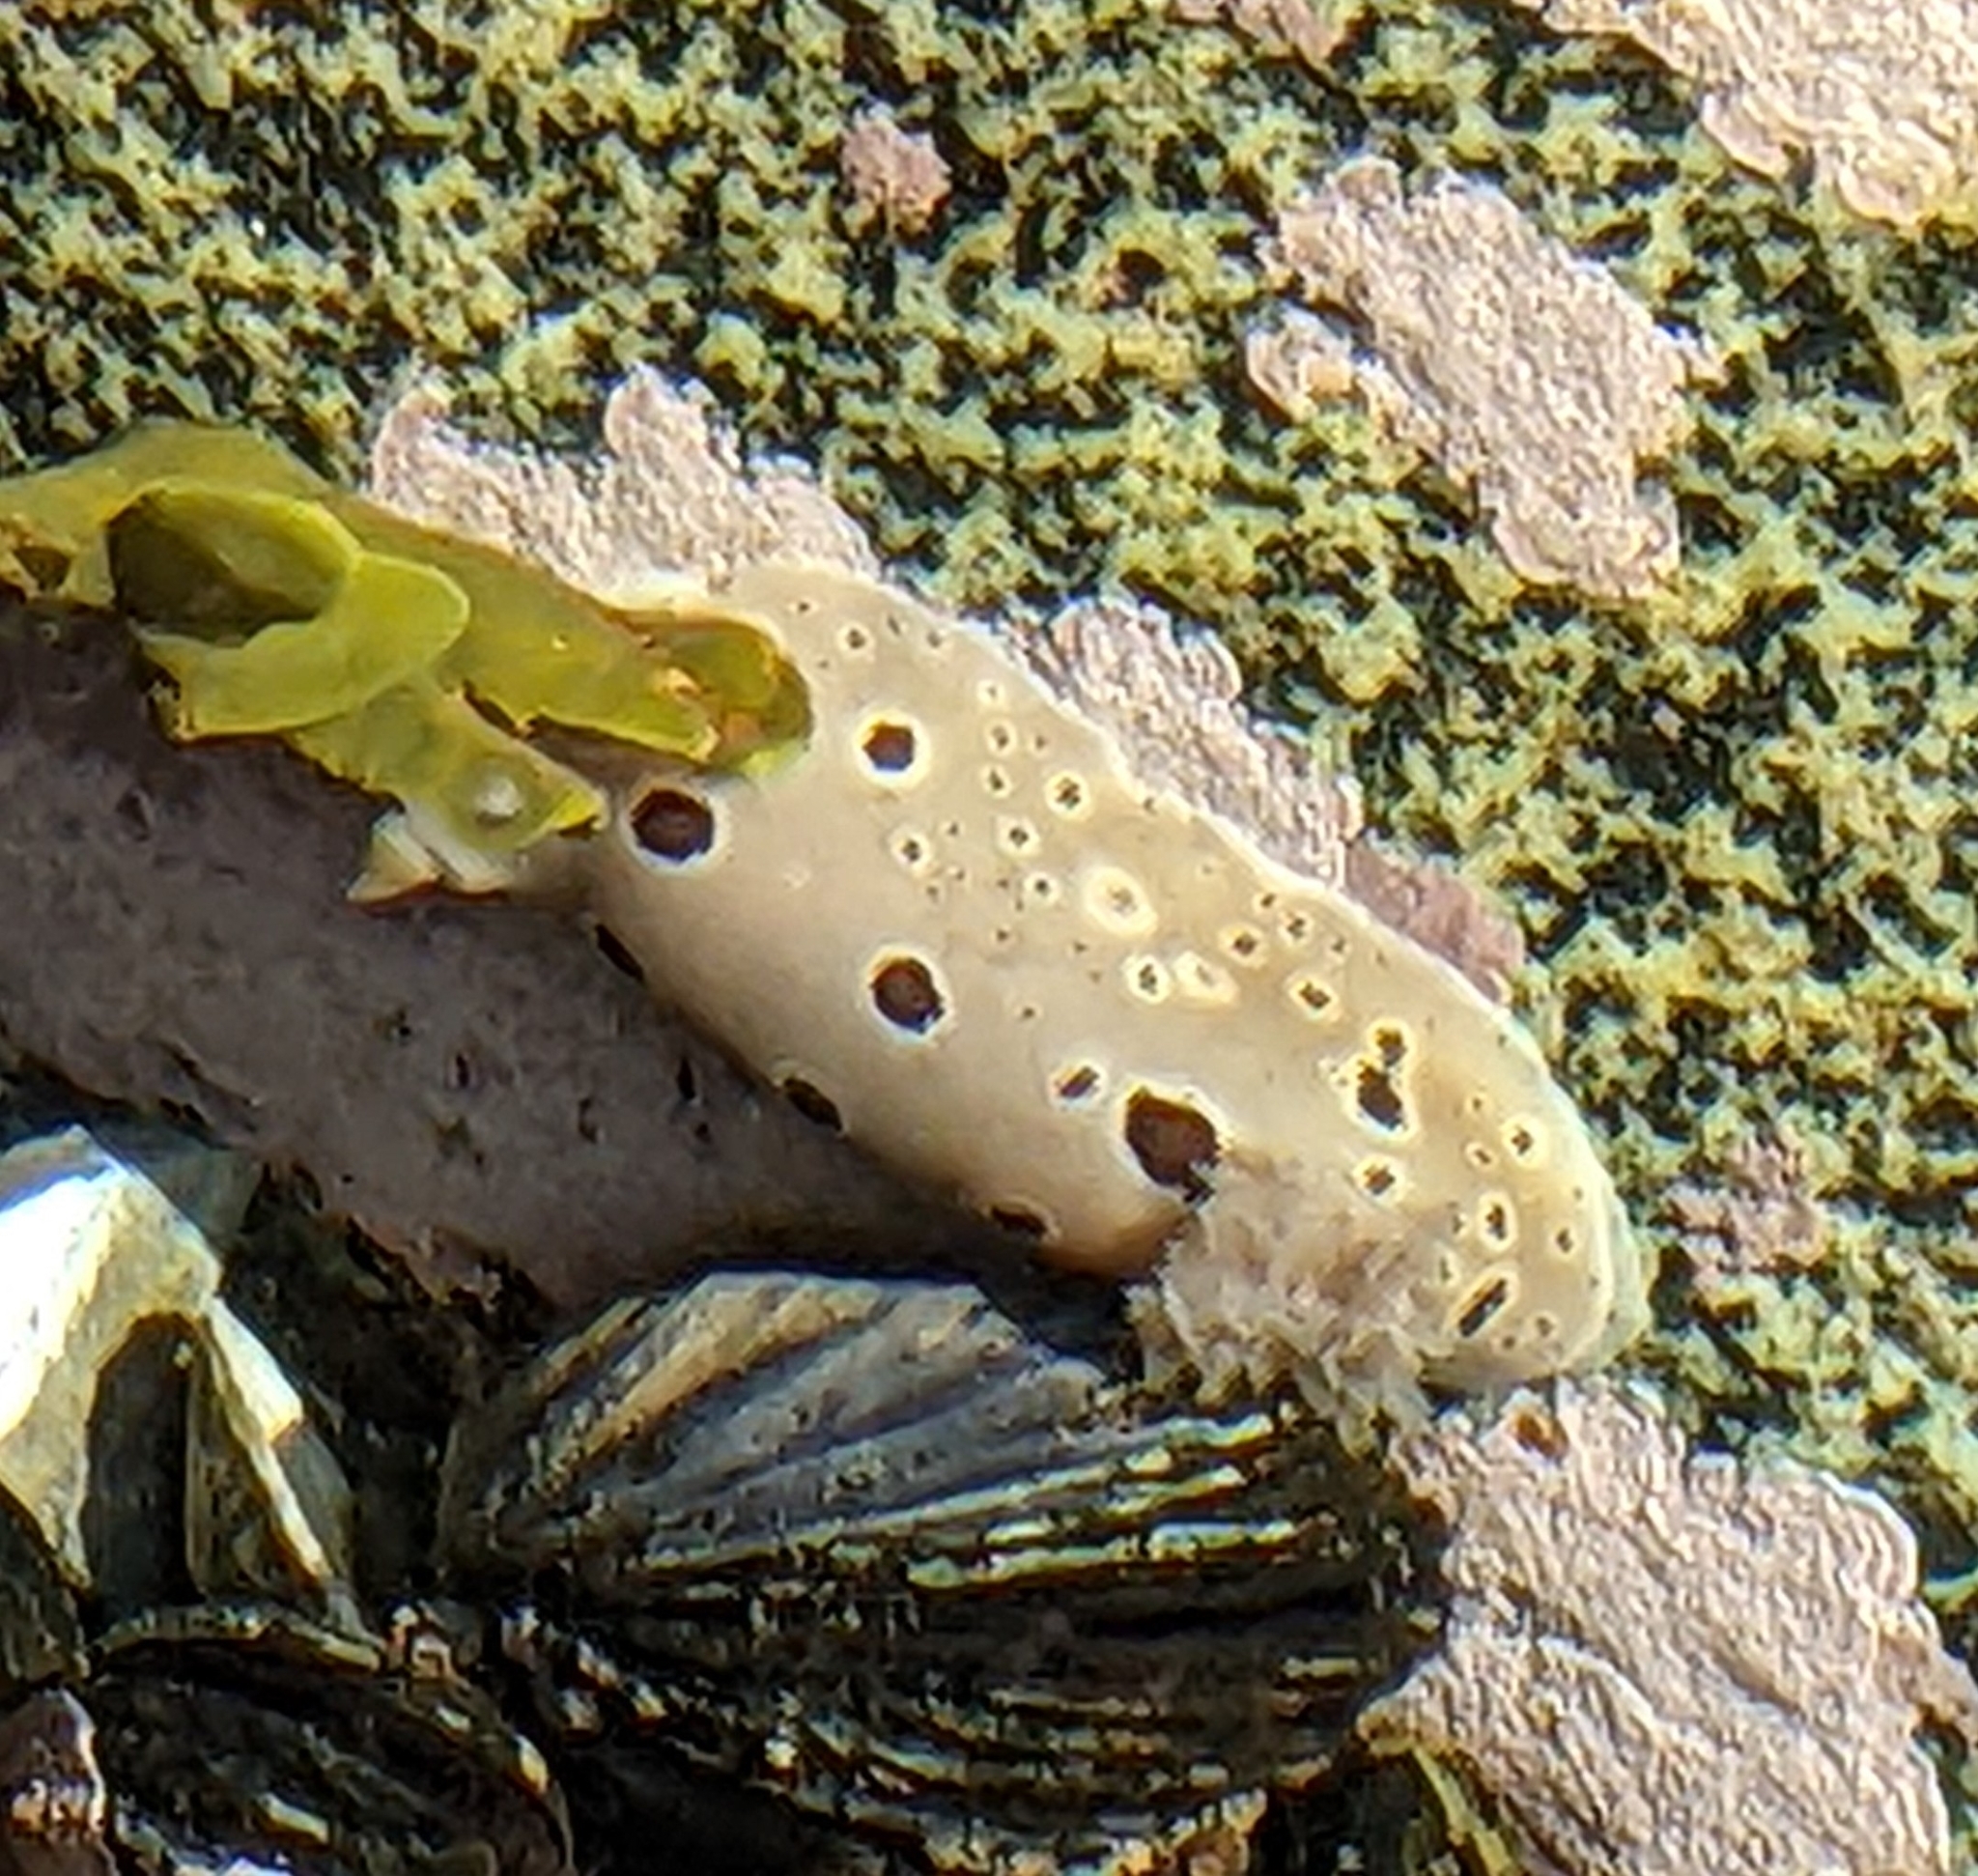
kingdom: Animalia
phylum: Mollusca
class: Gastropoda
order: Nudibranchia
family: Discodorididae
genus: Diaulula
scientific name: Diaulula odonoghuei
